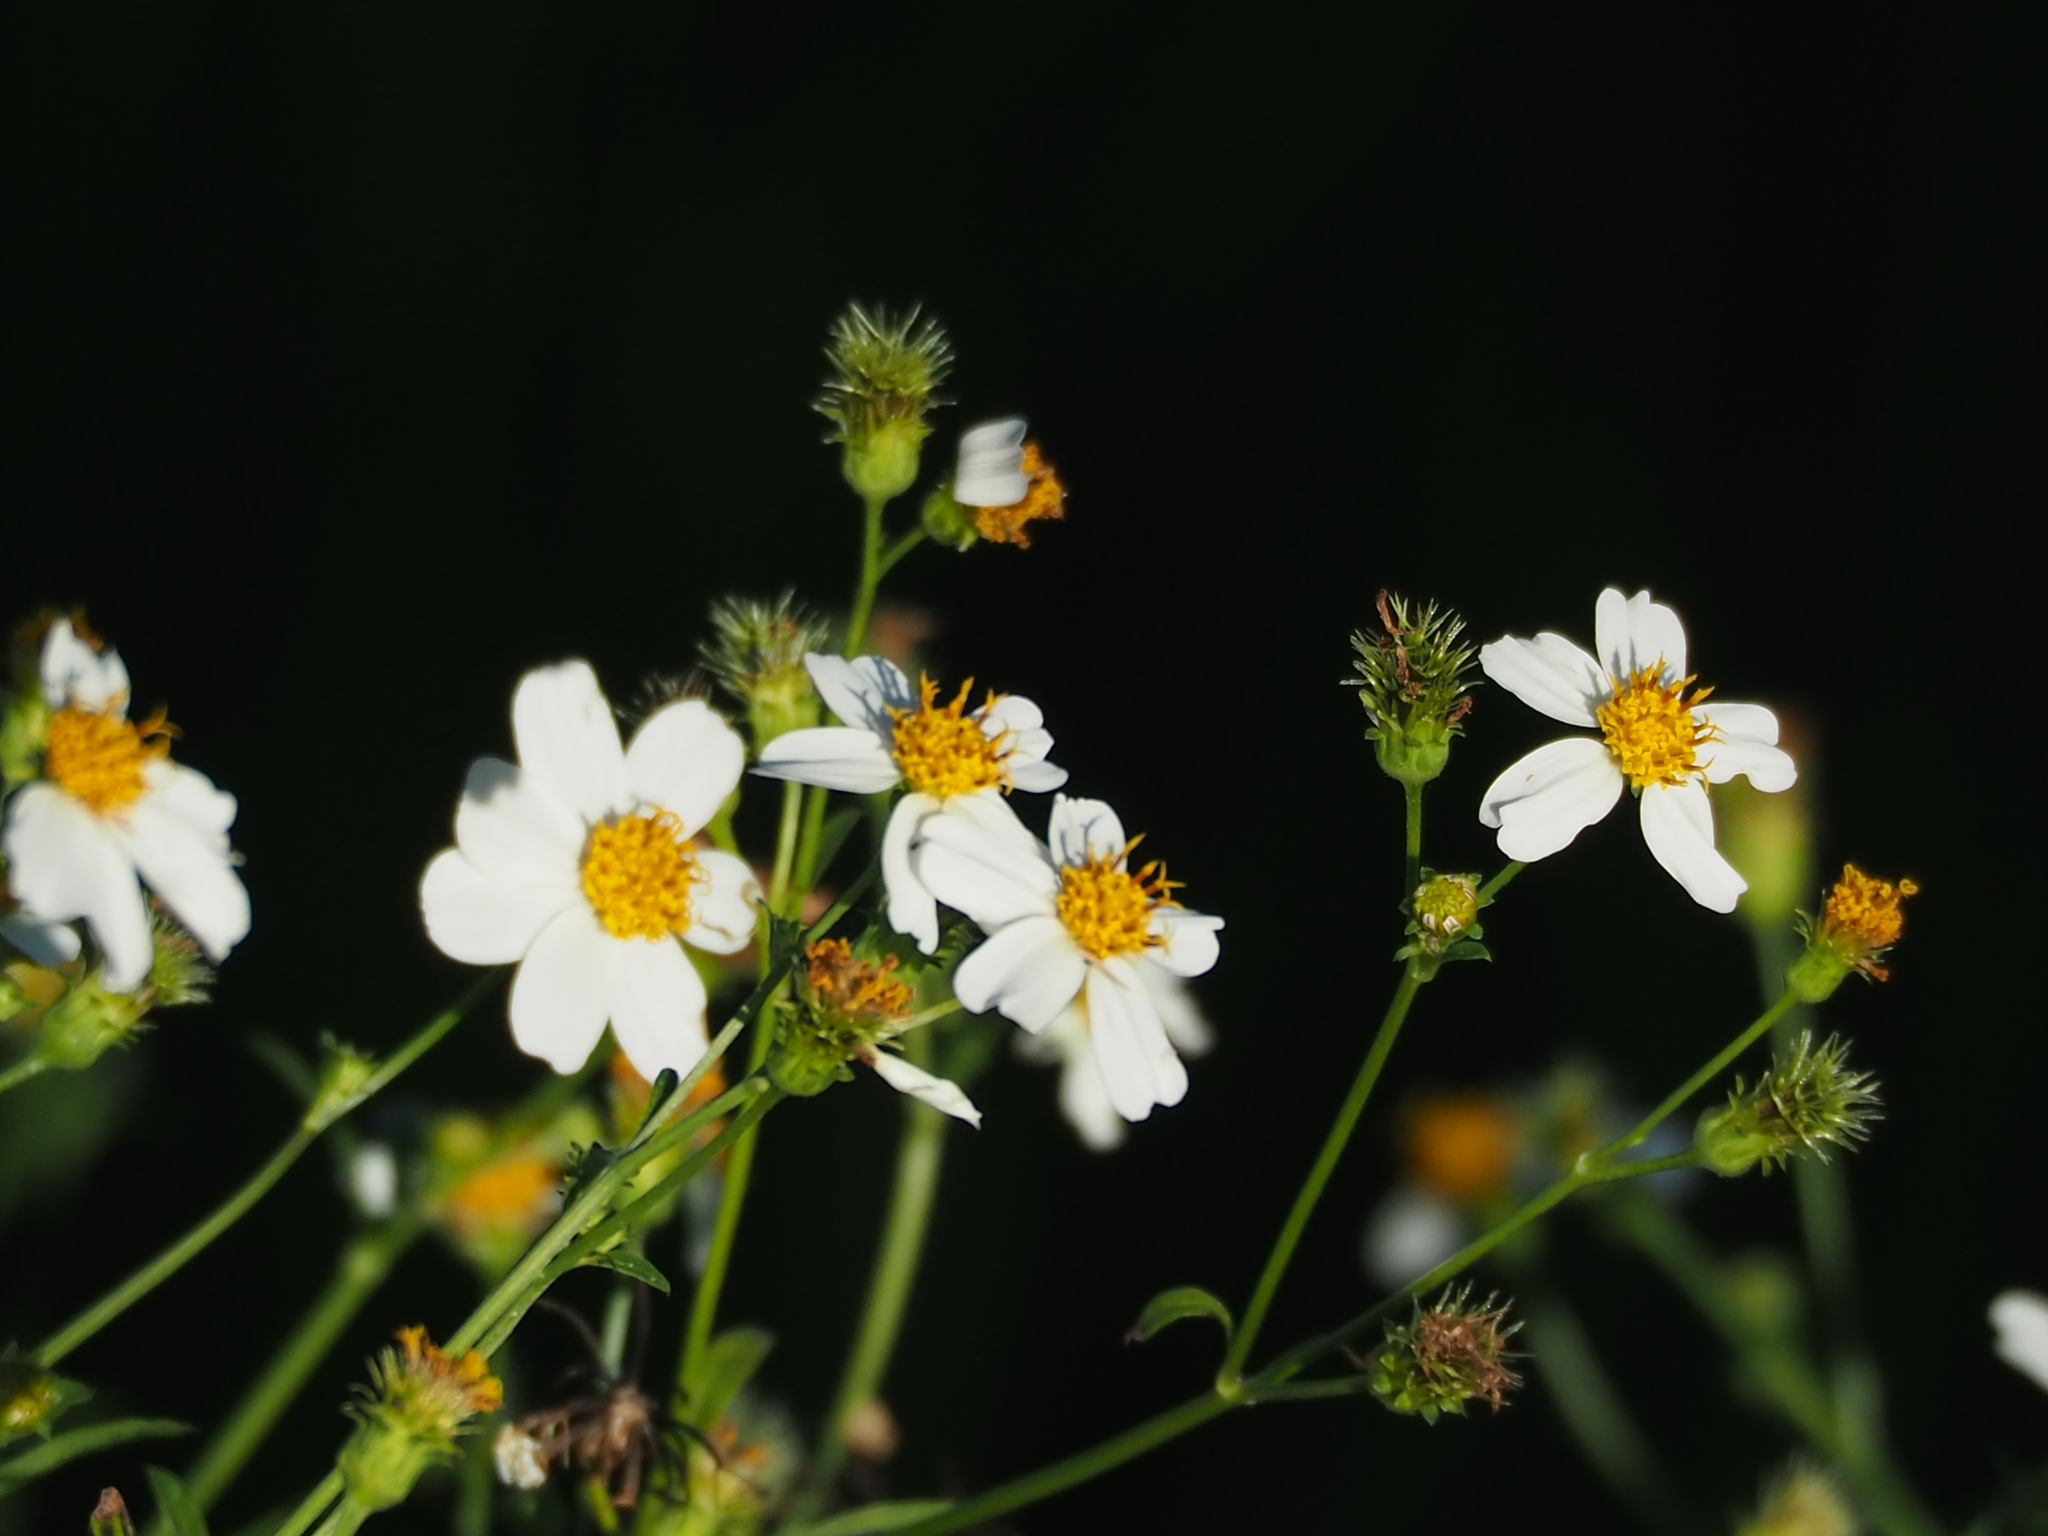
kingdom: Plantae
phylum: Tracheophyta
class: Magnoliopsida
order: Asterales
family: Asteraceae
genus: Bidens
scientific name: Bidens alba
